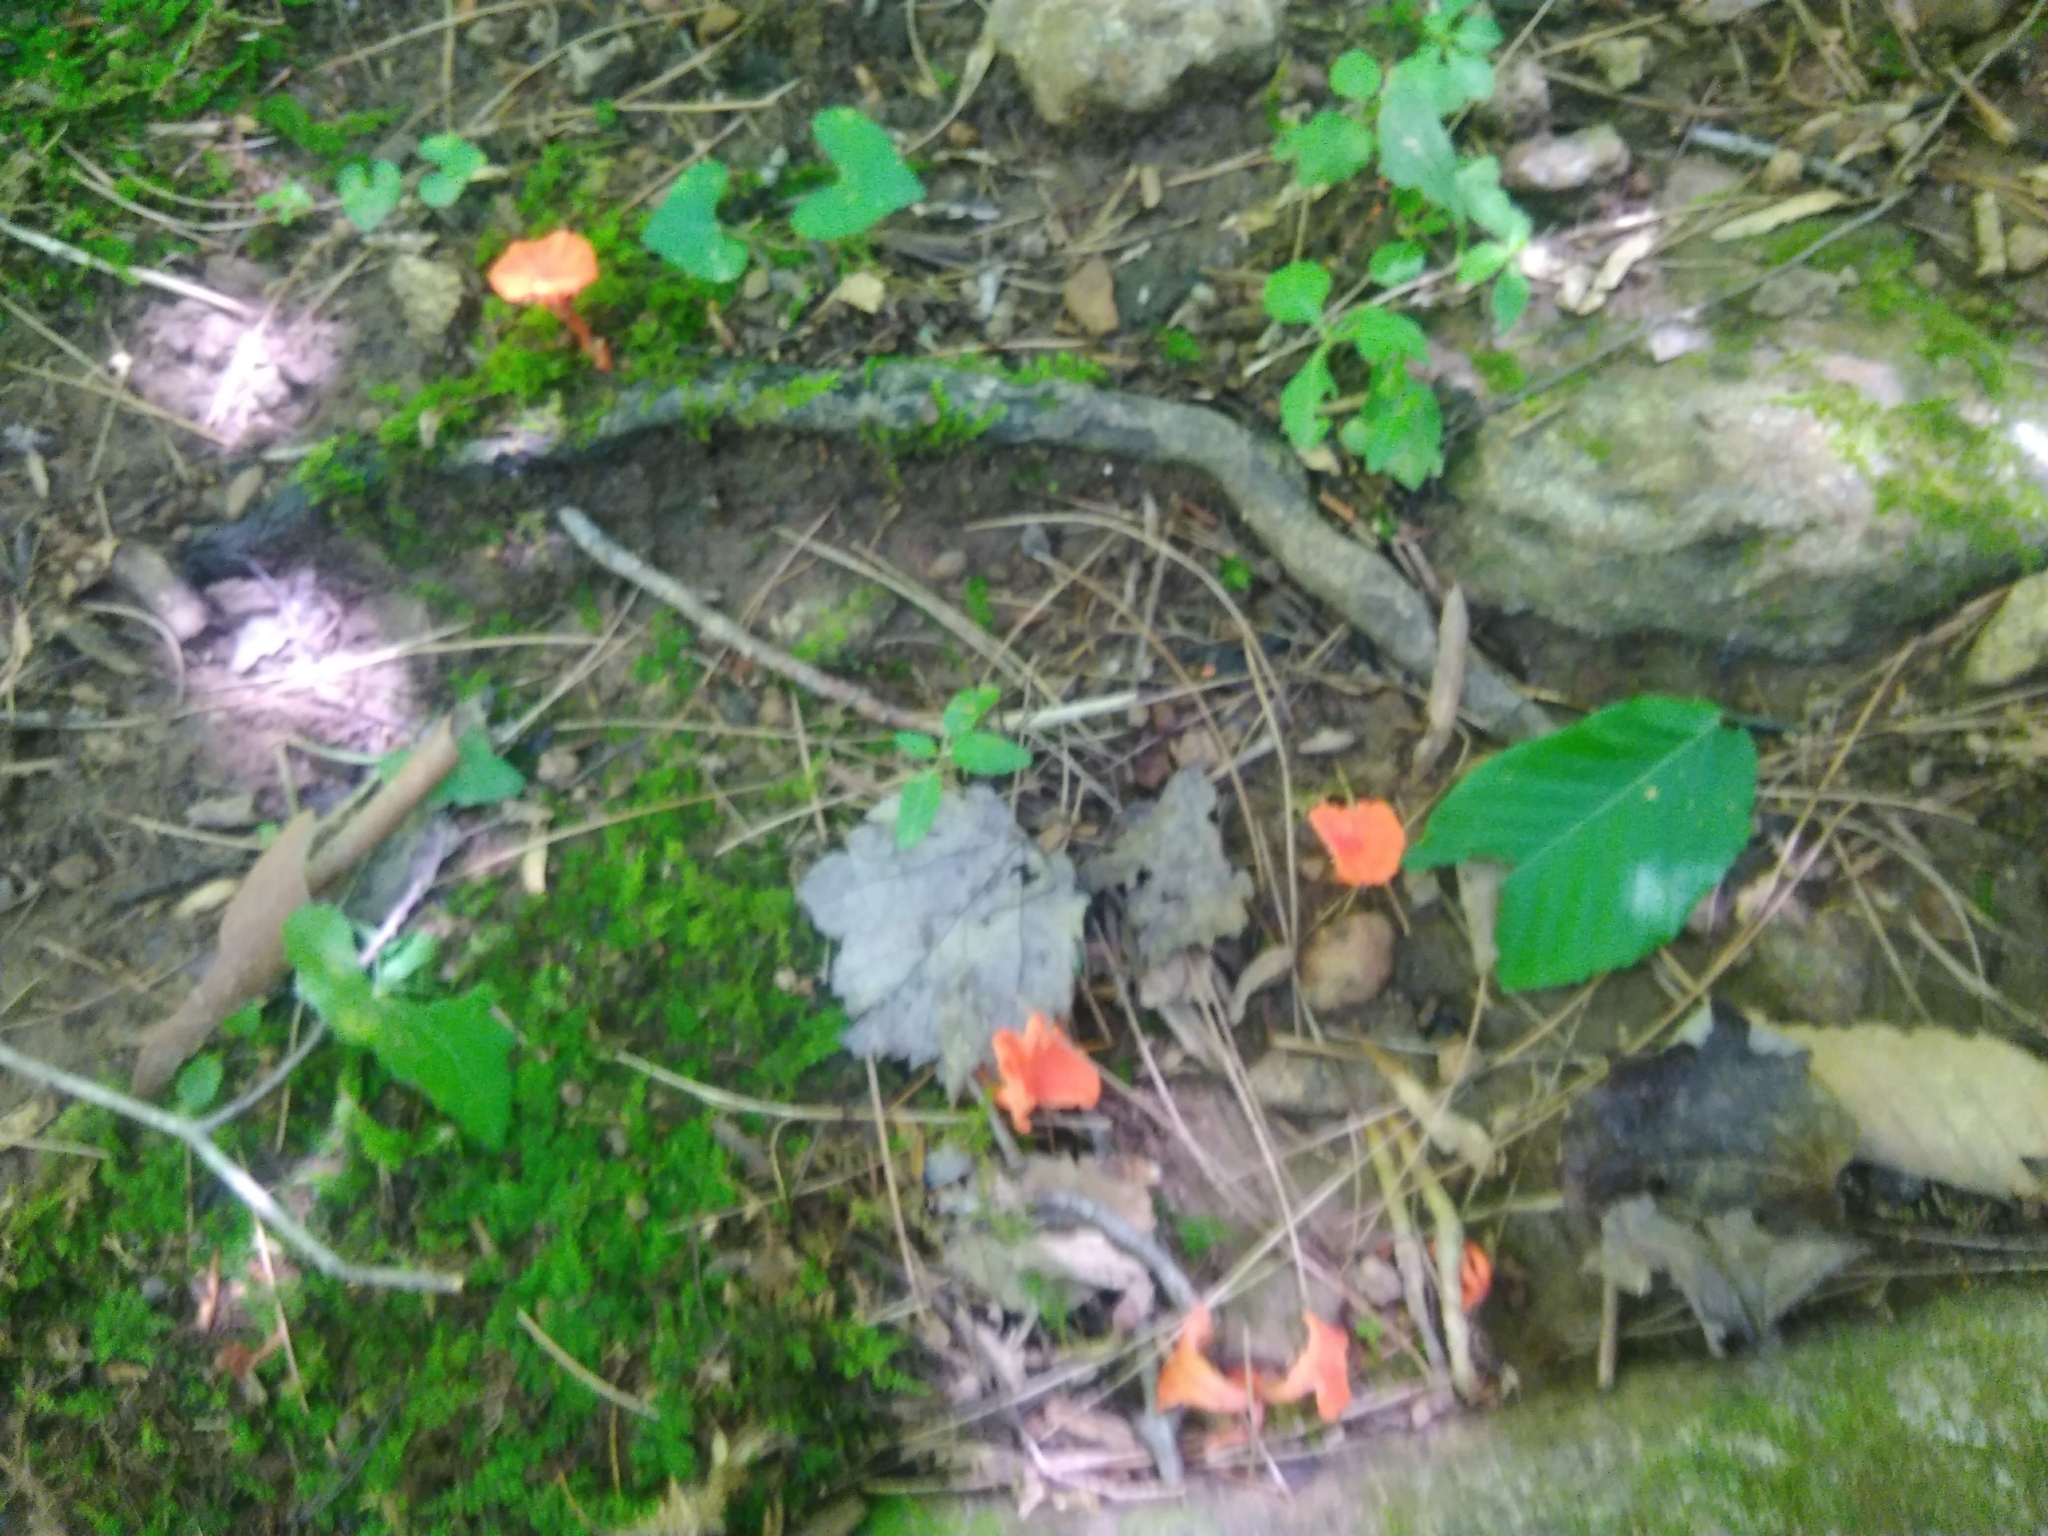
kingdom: Fungi
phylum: Basidiomycota
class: Agaricomycetes
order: Cantharellales
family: Hydnaceae
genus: Cantharellus
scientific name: Cantharellus cinnabarinus
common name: Cinnabar chanterelle
